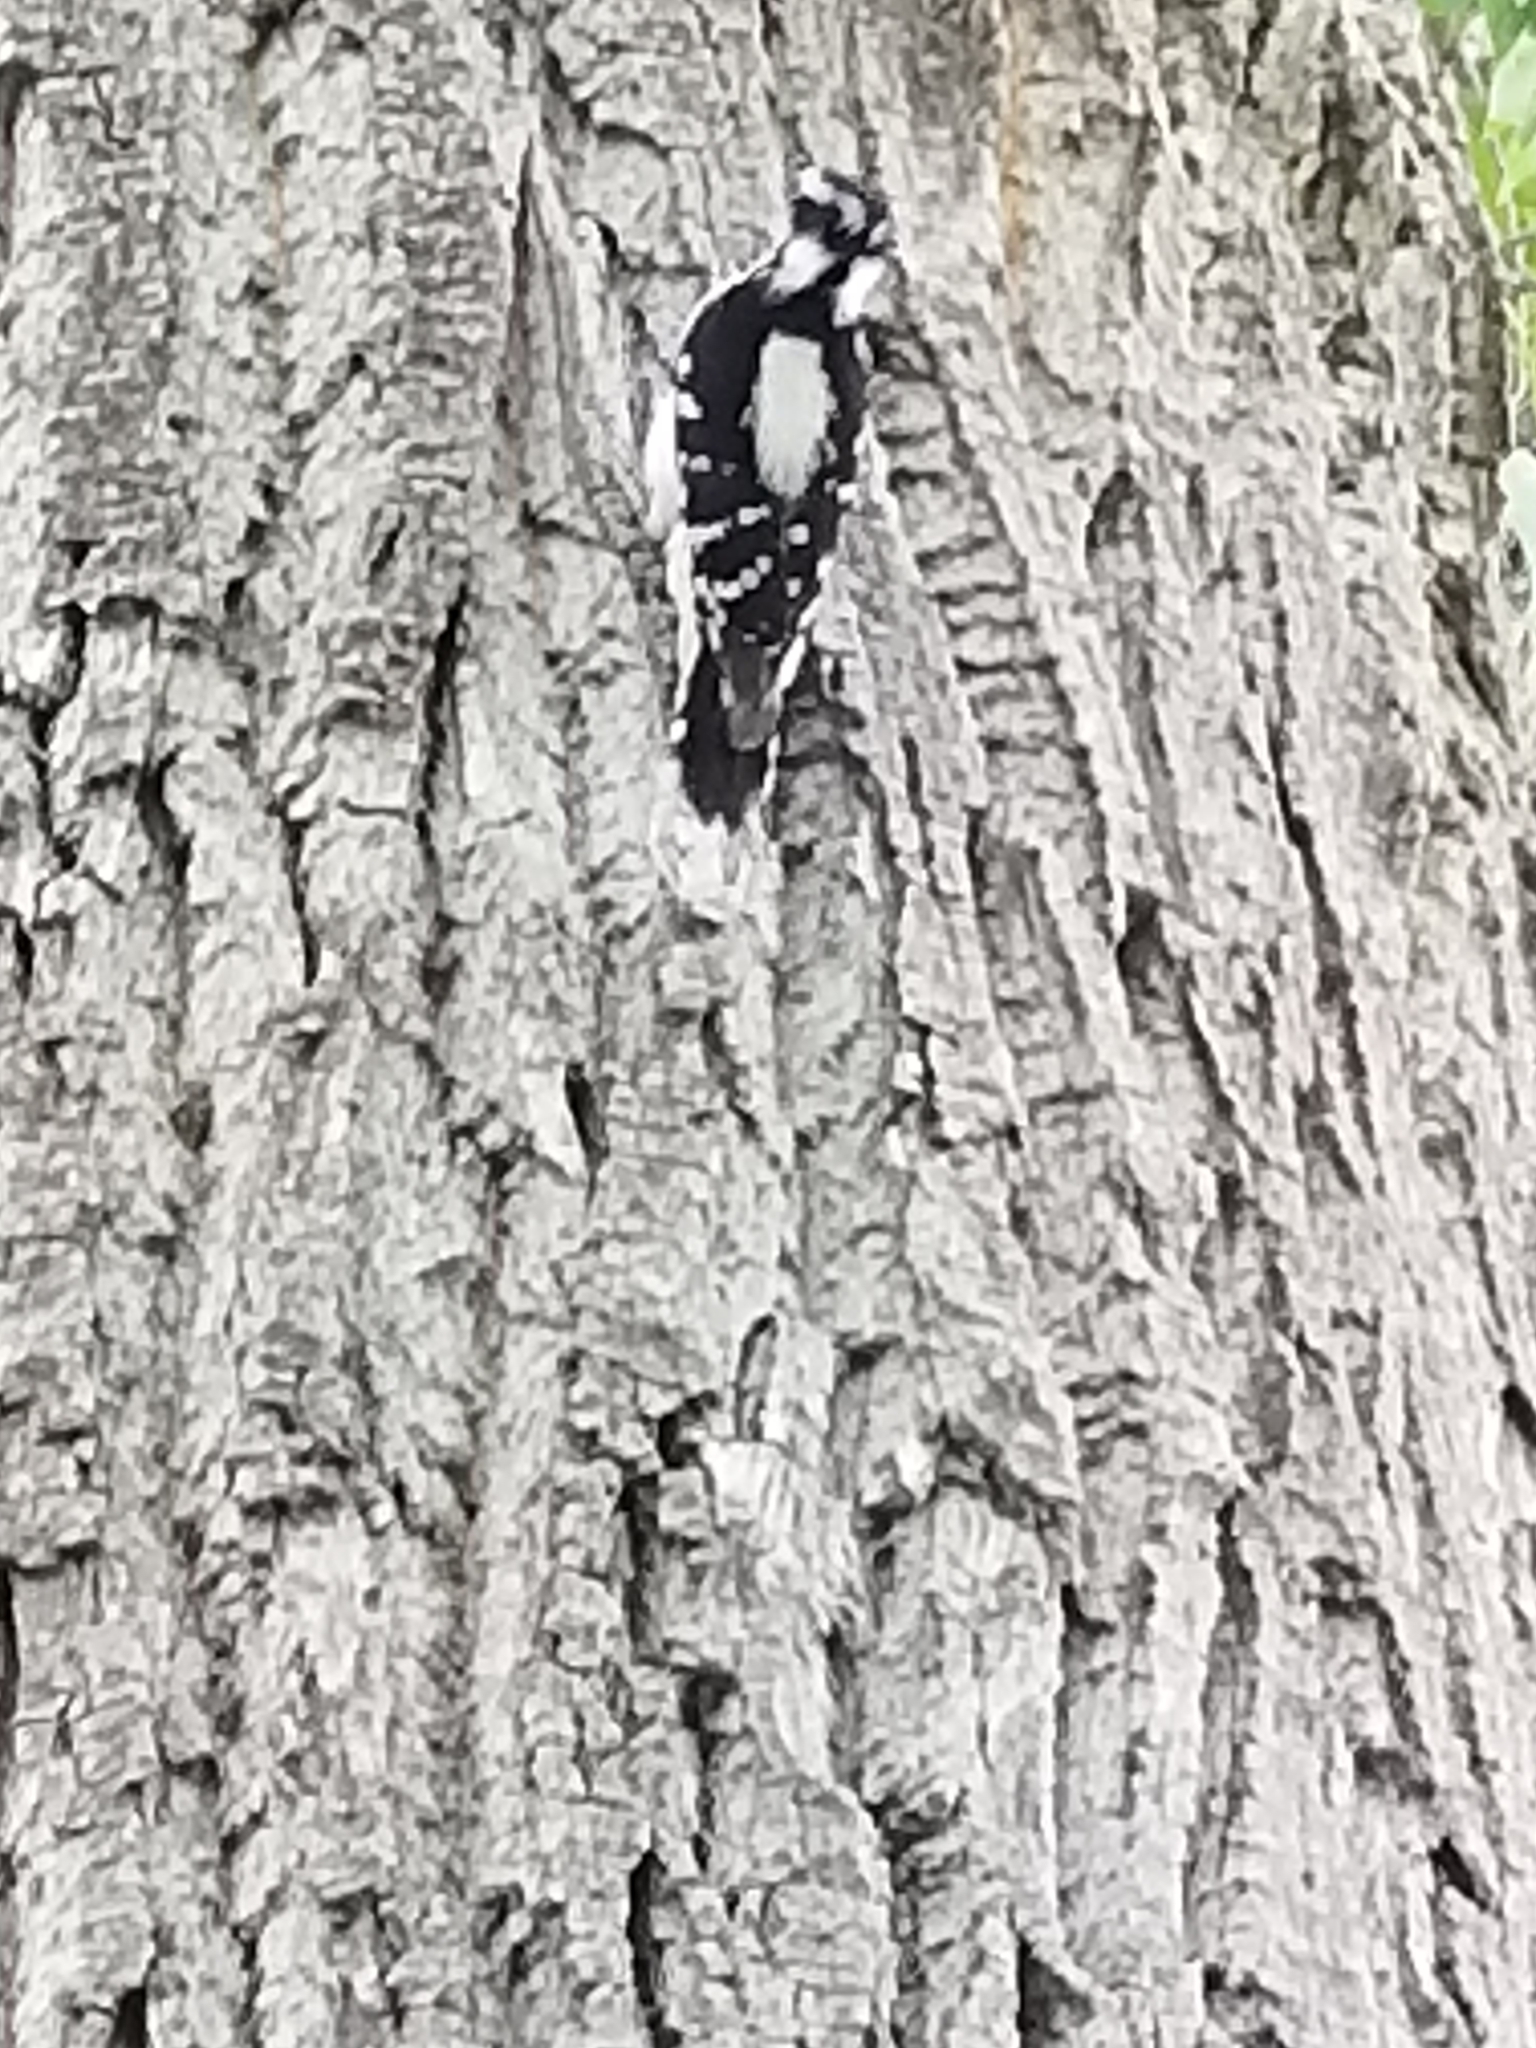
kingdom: Animalia
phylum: Chordata
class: Aves
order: Piciformes
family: Picidae
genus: Dryobates
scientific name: Dryobates pubescens
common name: Downy woodpecker
